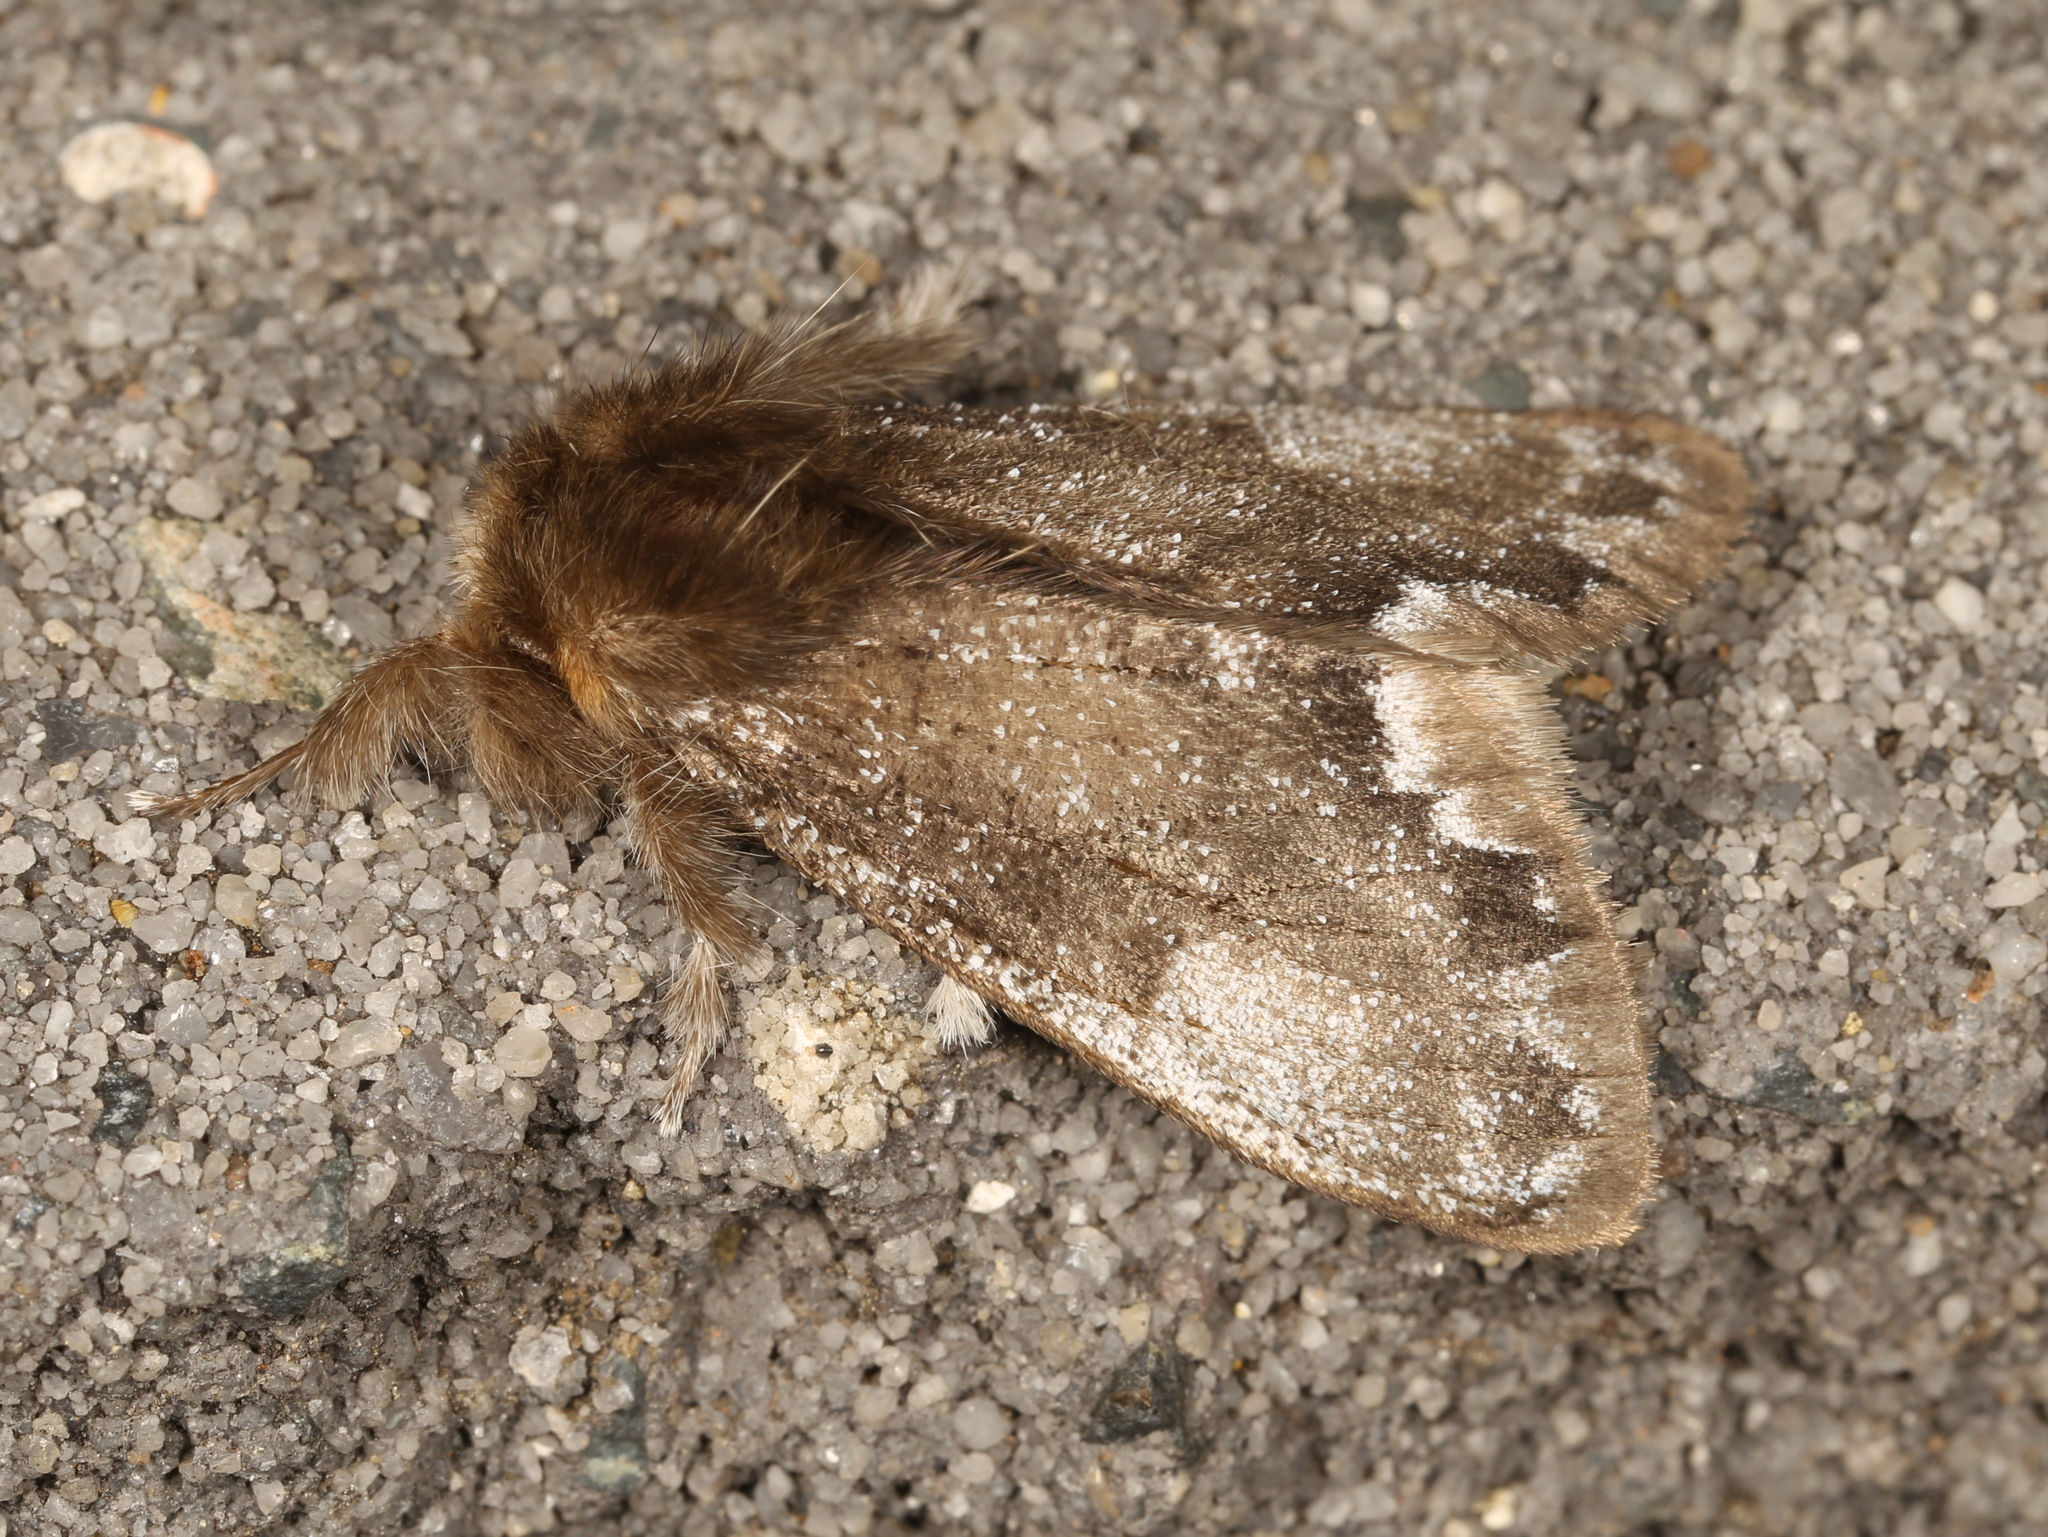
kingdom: Animalia
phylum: Arthropoda
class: Insecta
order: Lepidoptera
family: Erebidae
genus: Euproctis
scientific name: Euproctis
